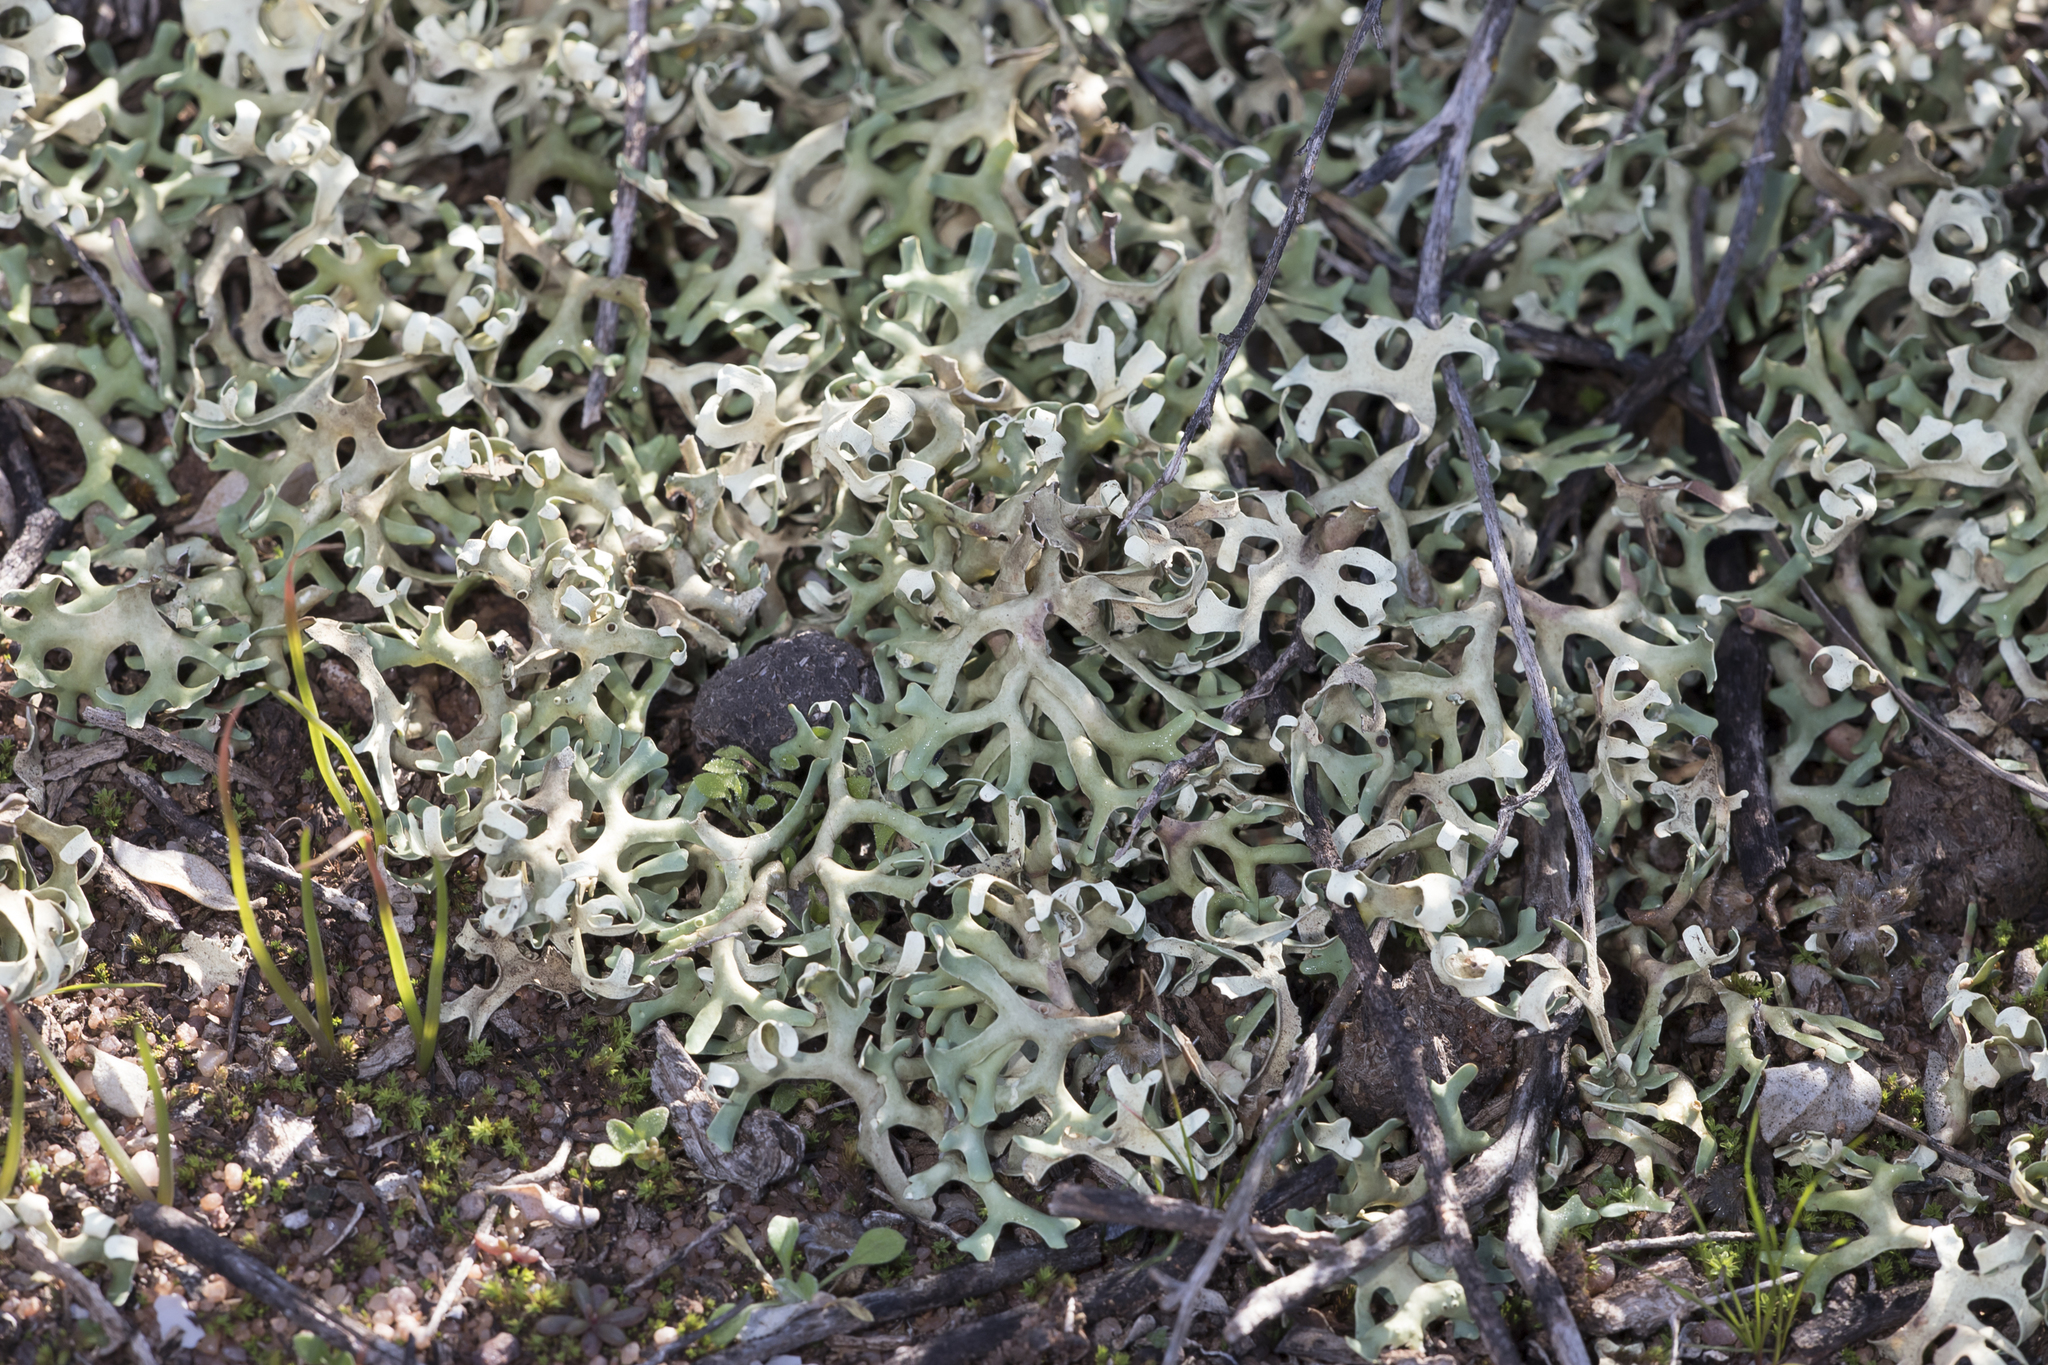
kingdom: Fungi
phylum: Ascomycota
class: Lecanoromycetes
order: Lecanorales
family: Parmeliaceae
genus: Xanthoparmelia
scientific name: Xanthoparmelia semiviridis
